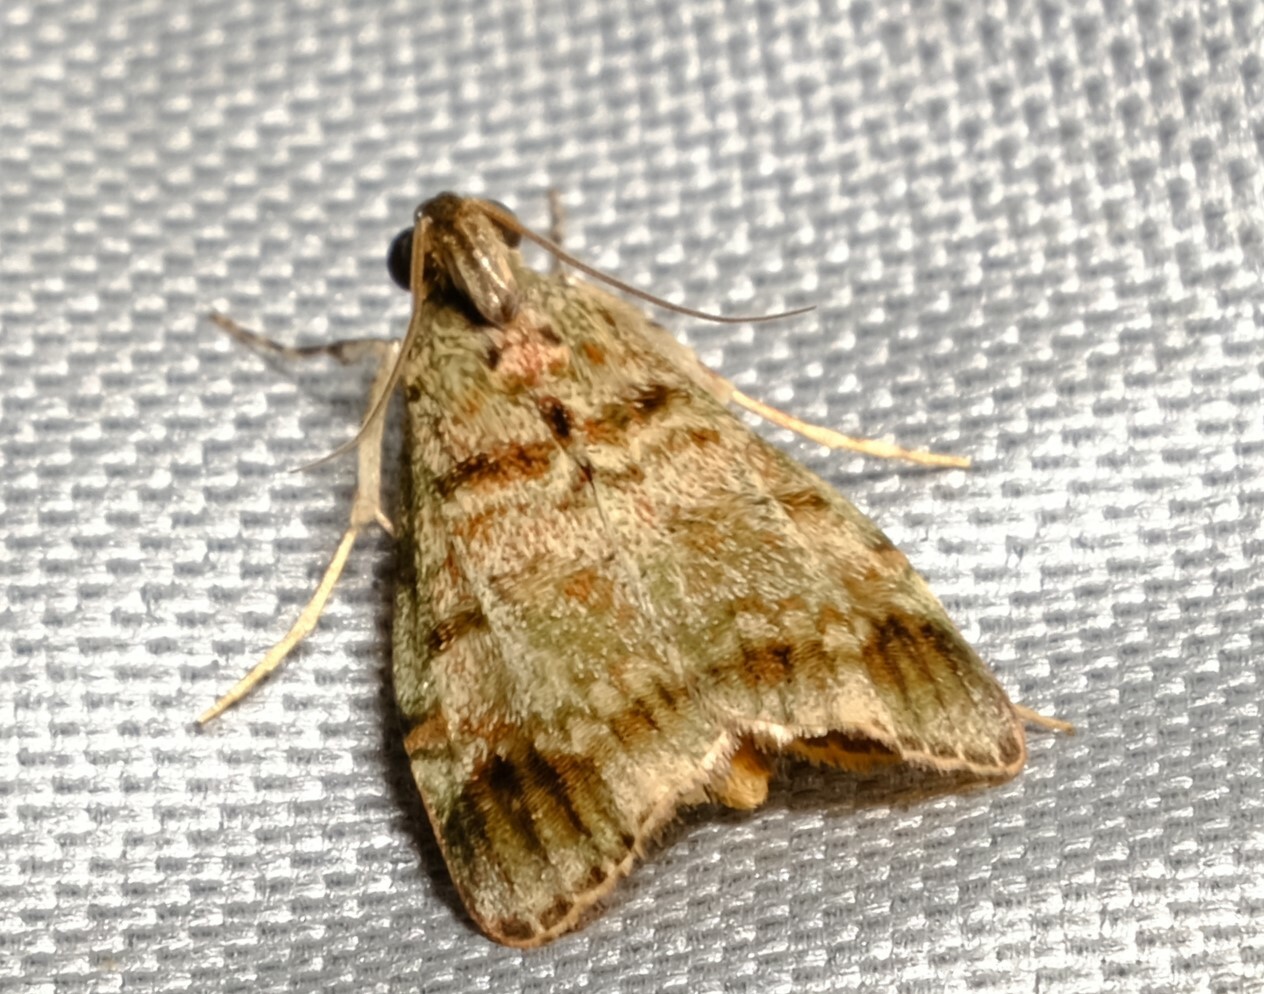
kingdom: Animalia
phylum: Arthropoda
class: Insecta
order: Lepidoptera
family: Pyralidae
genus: Stericta
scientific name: Stericta concisella
